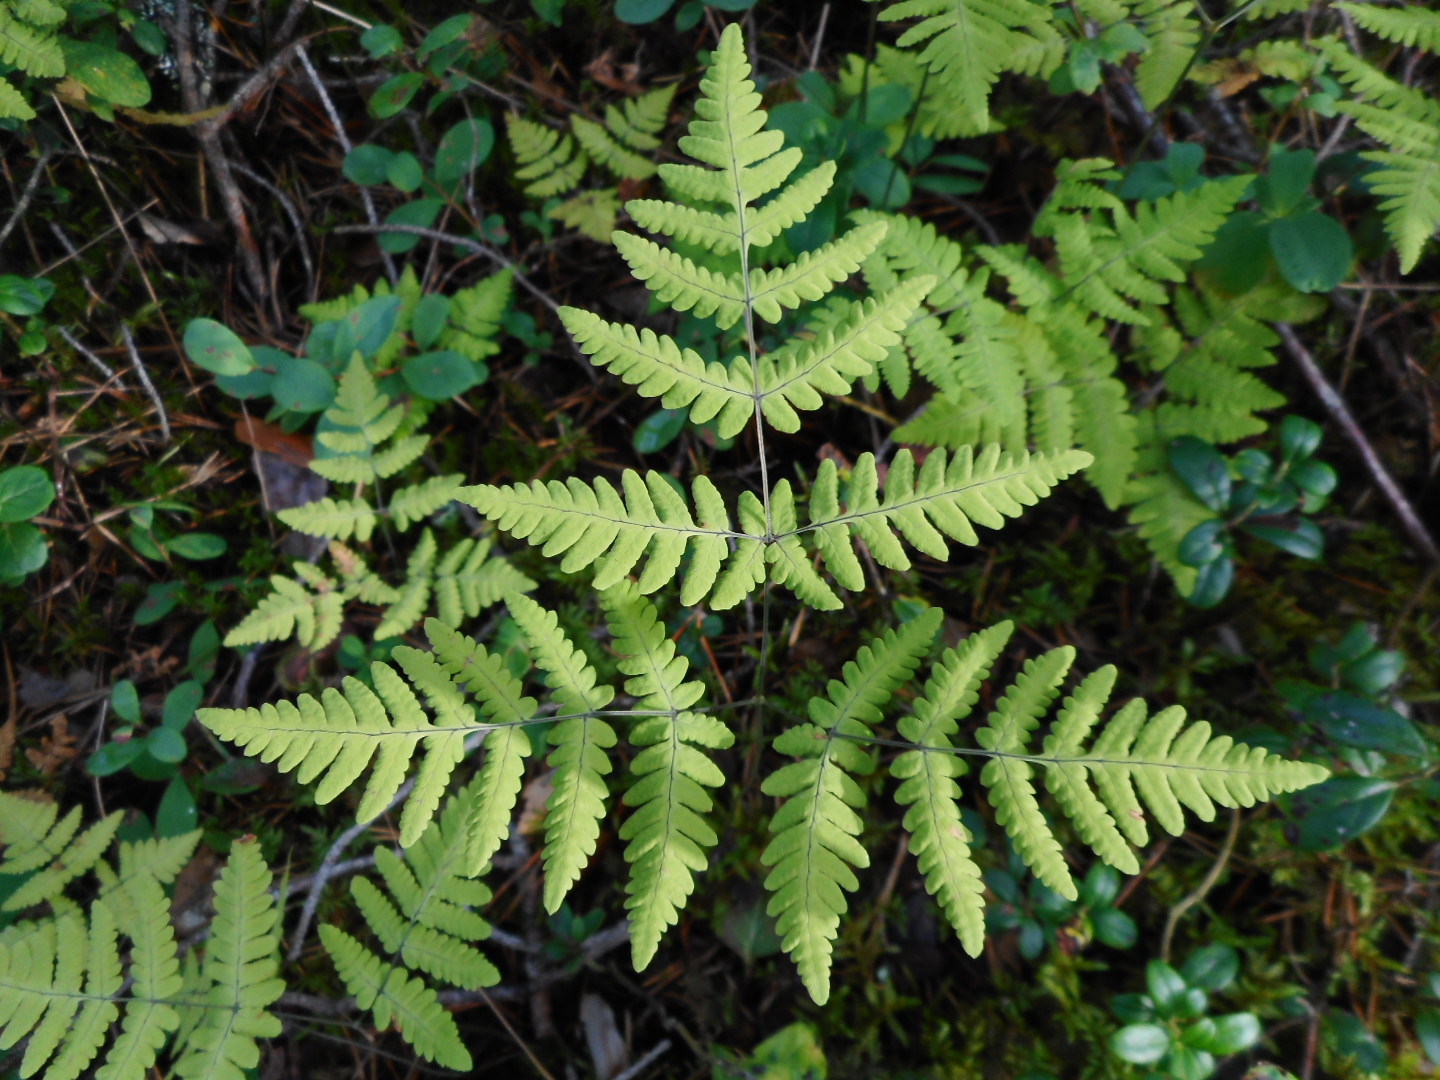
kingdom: Plantae
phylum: Tracheophyta
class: Polypodiopsida
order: Polypodiales
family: Cystopteridaceae
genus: Gymnocarpium
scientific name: Gymnocarpium dryopteris
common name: Oak fern
